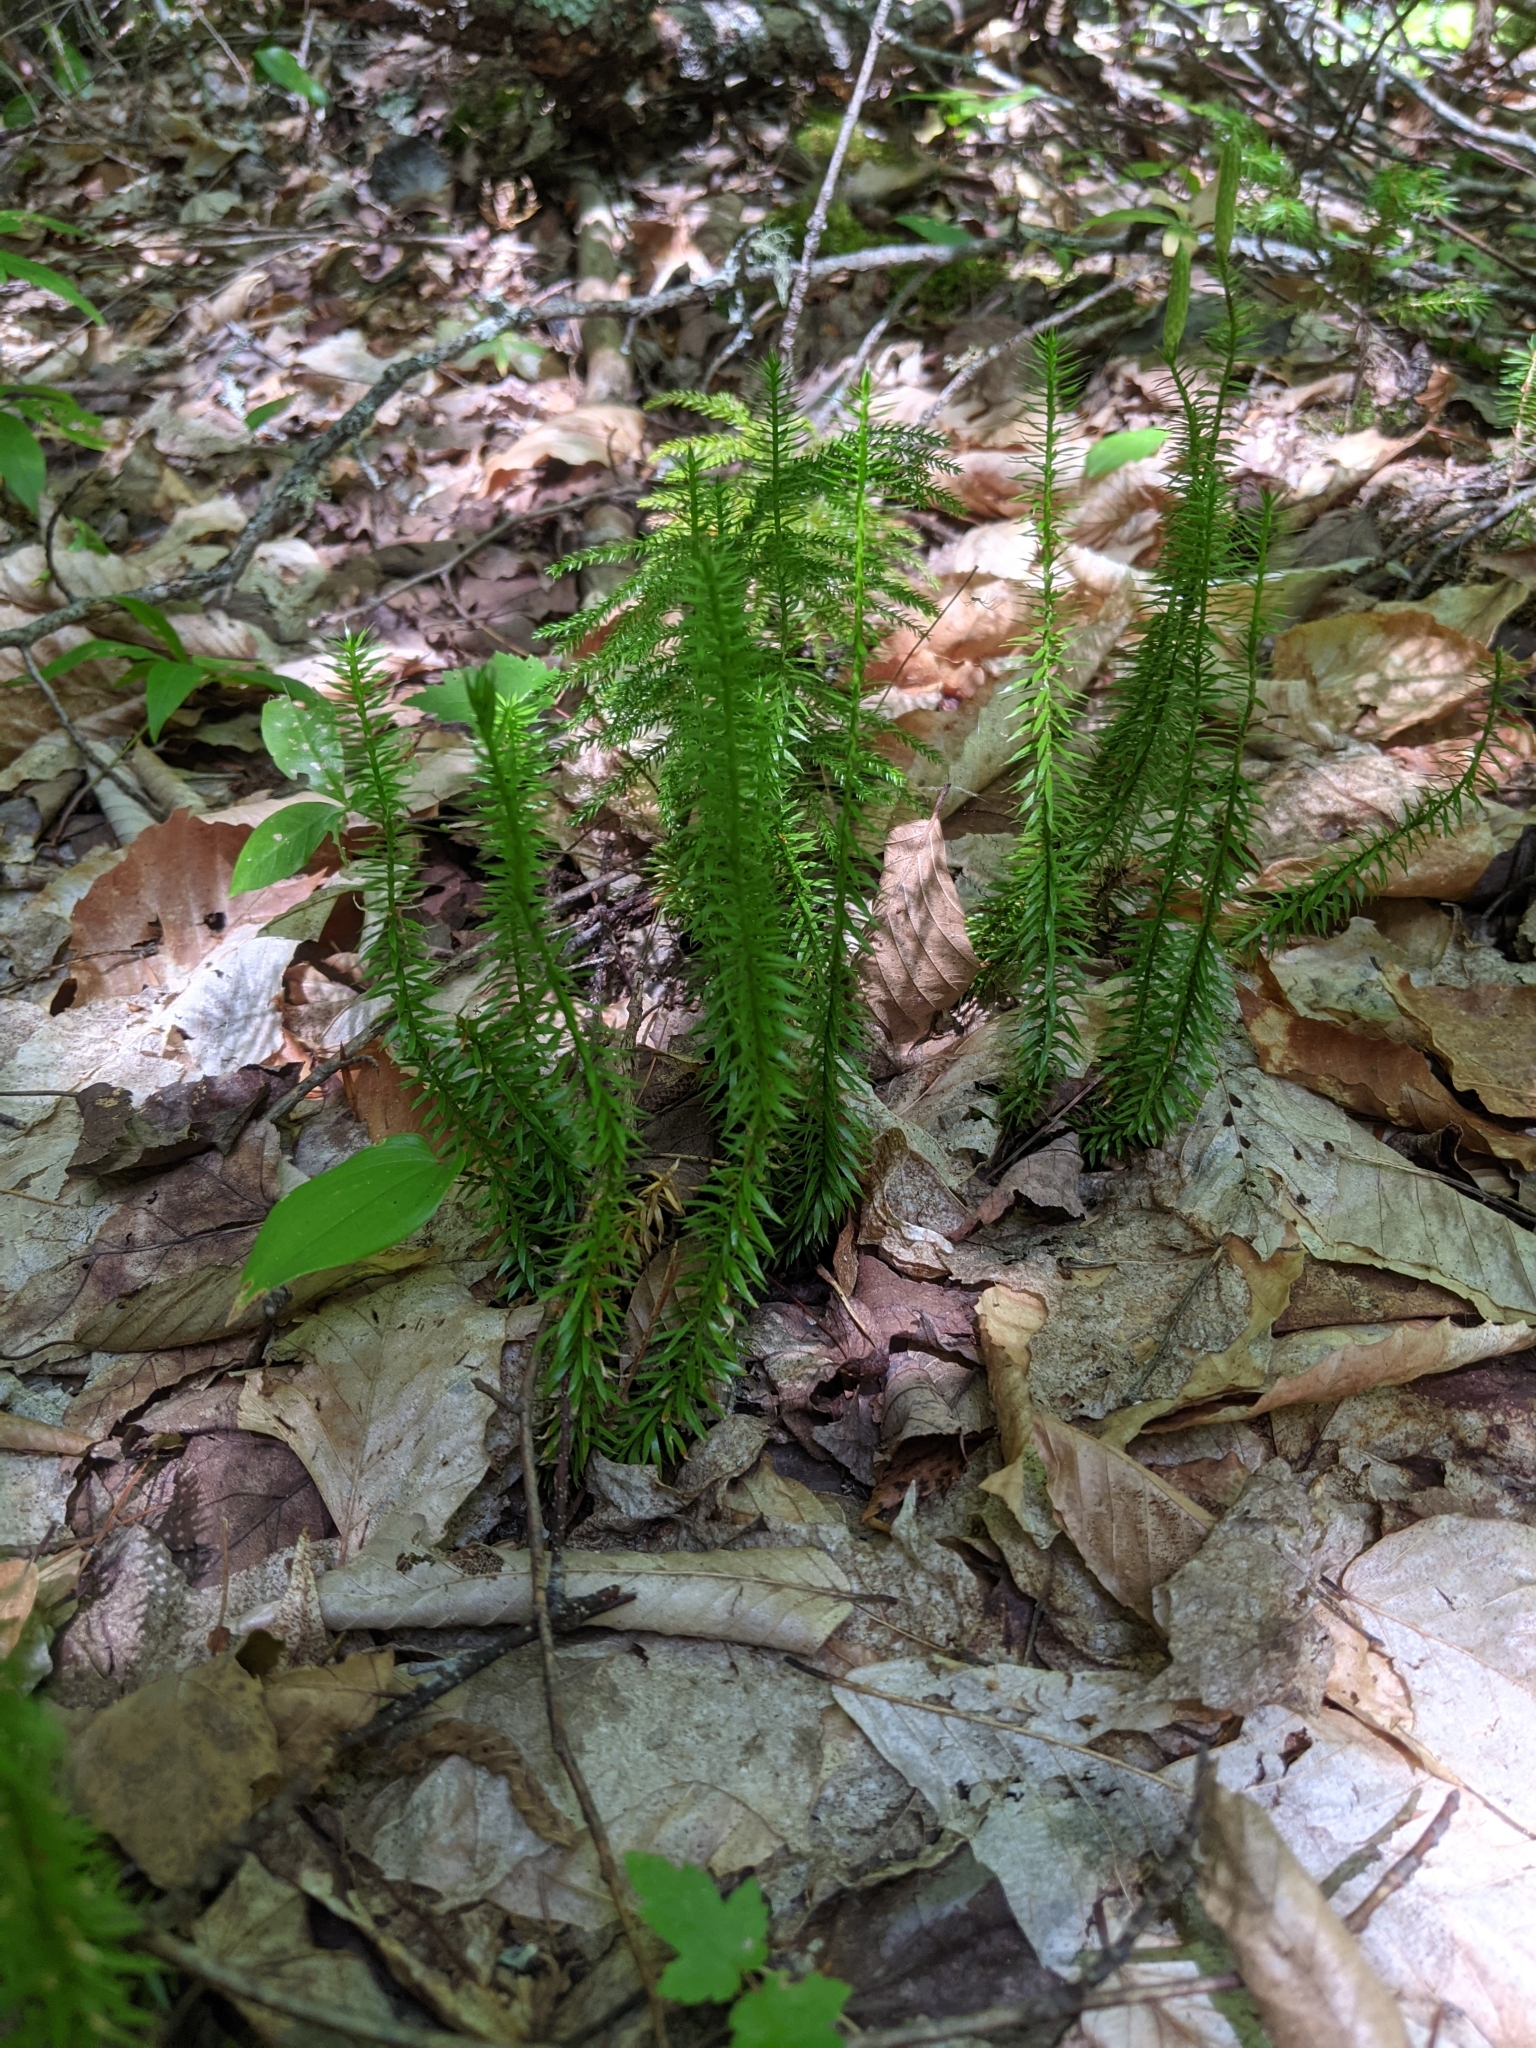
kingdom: Plantae
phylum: Tracheophyta
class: Lycopodiopsida
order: Lycopodiales
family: Lycopodiaceae
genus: Spinulum
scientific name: Spinulum annotinum
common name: Interrupted club-moss
